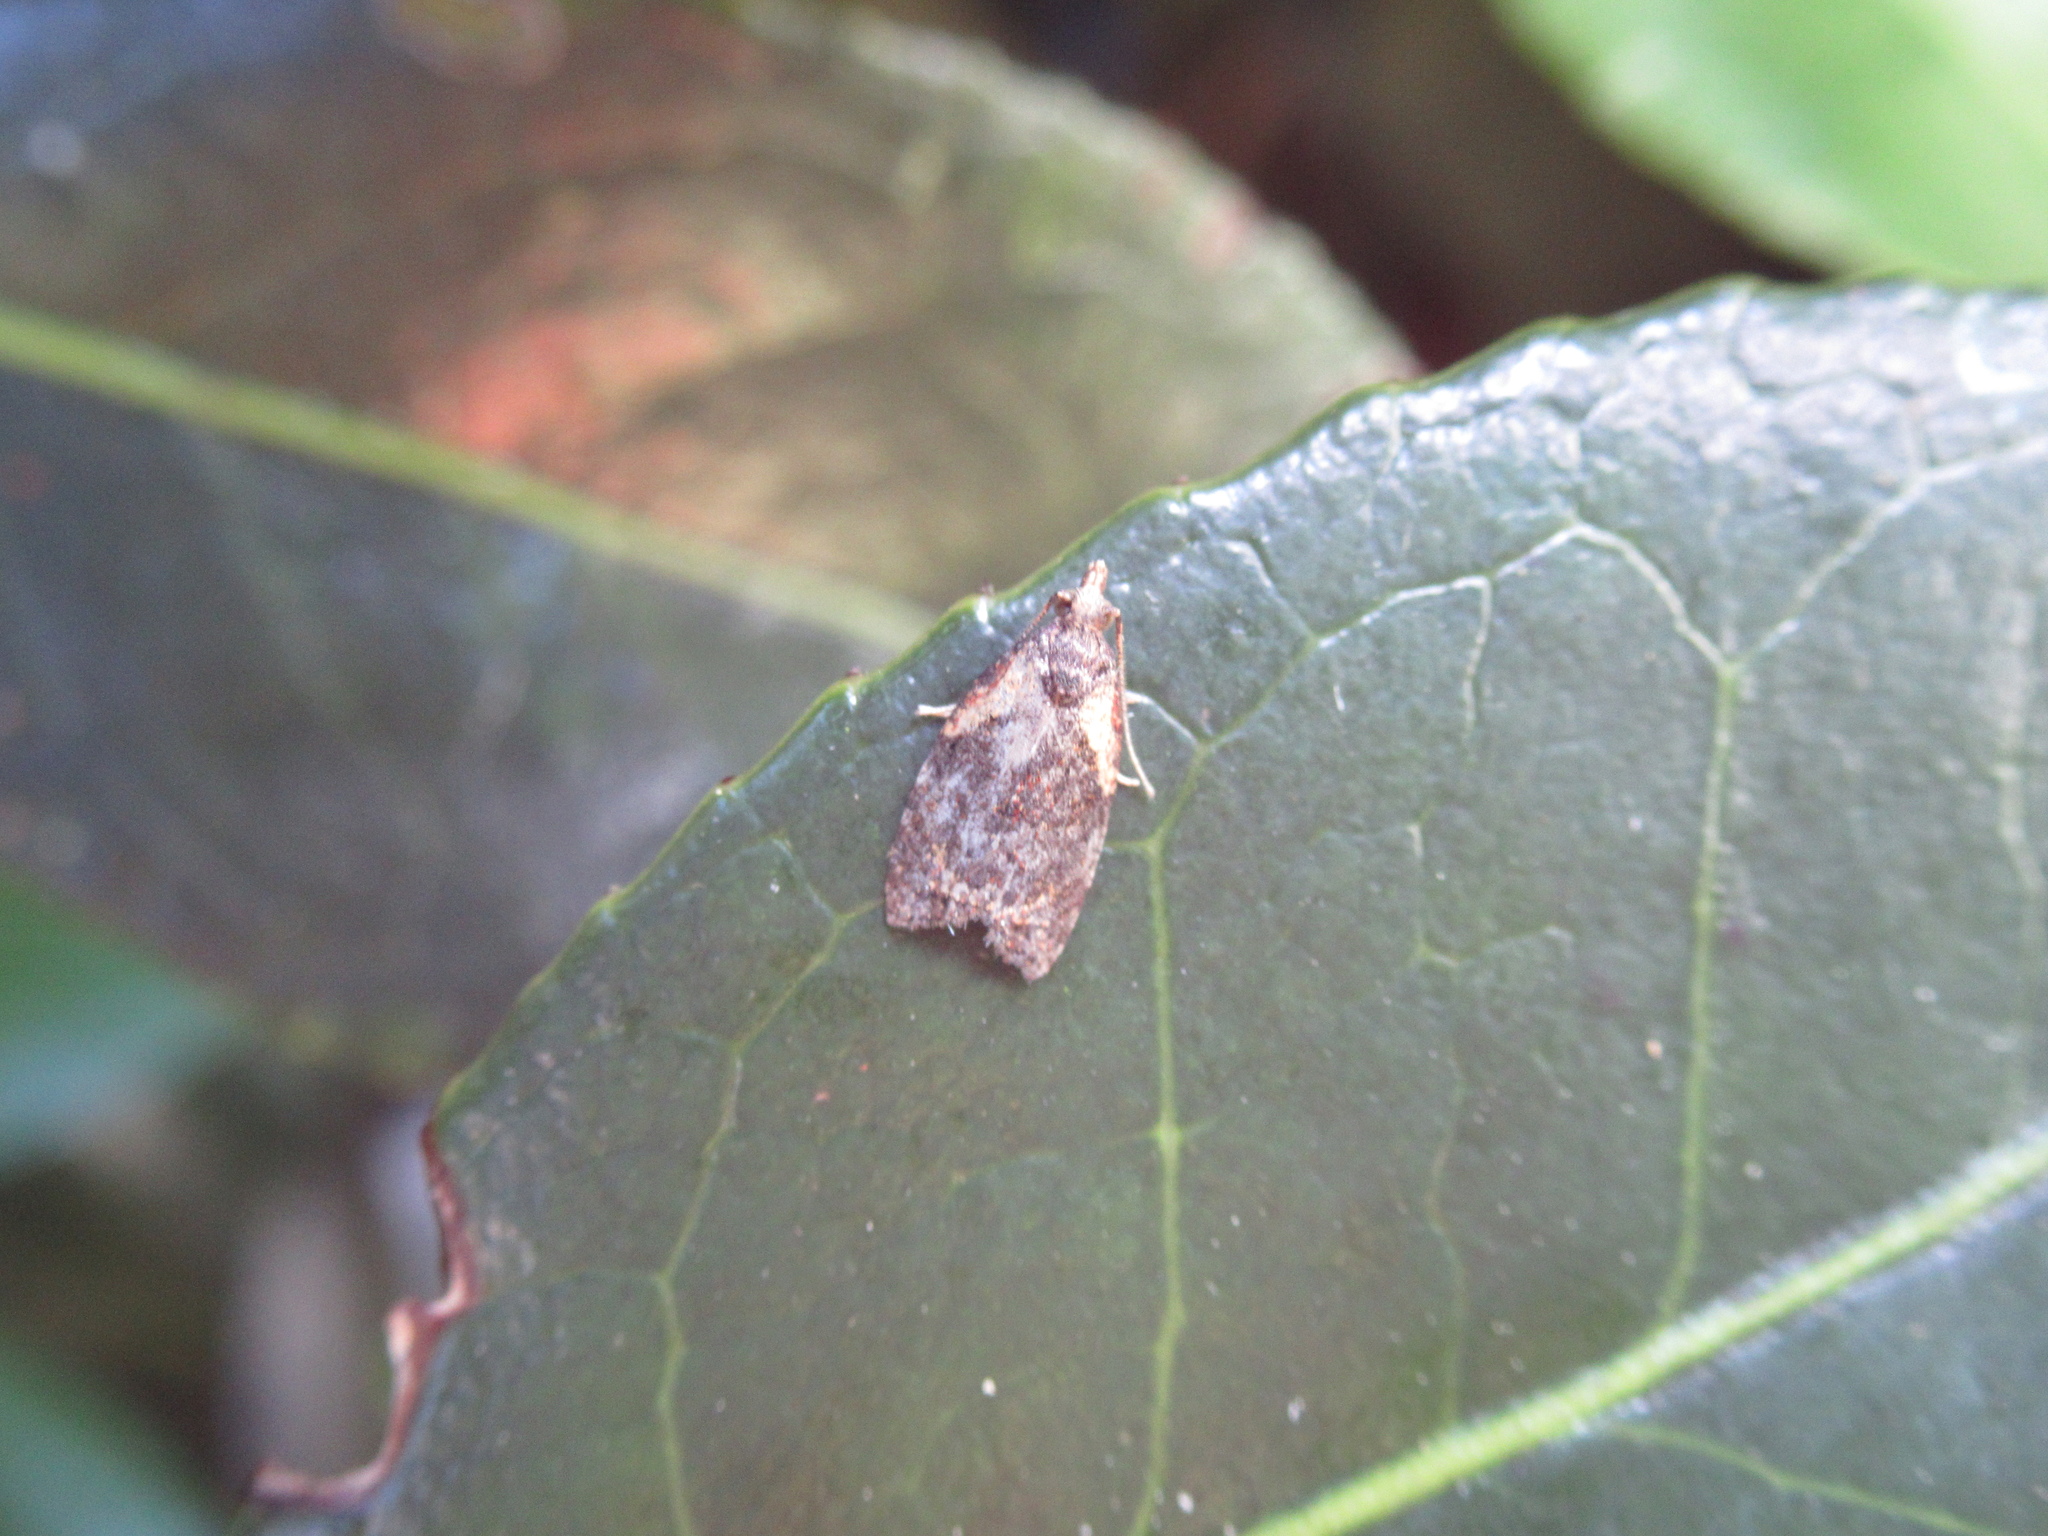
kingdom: Animalia
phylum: Arthropoda
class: Insecta
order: Lepidoptera
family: Tortricidae
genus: Capua
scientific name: Capua intractana
